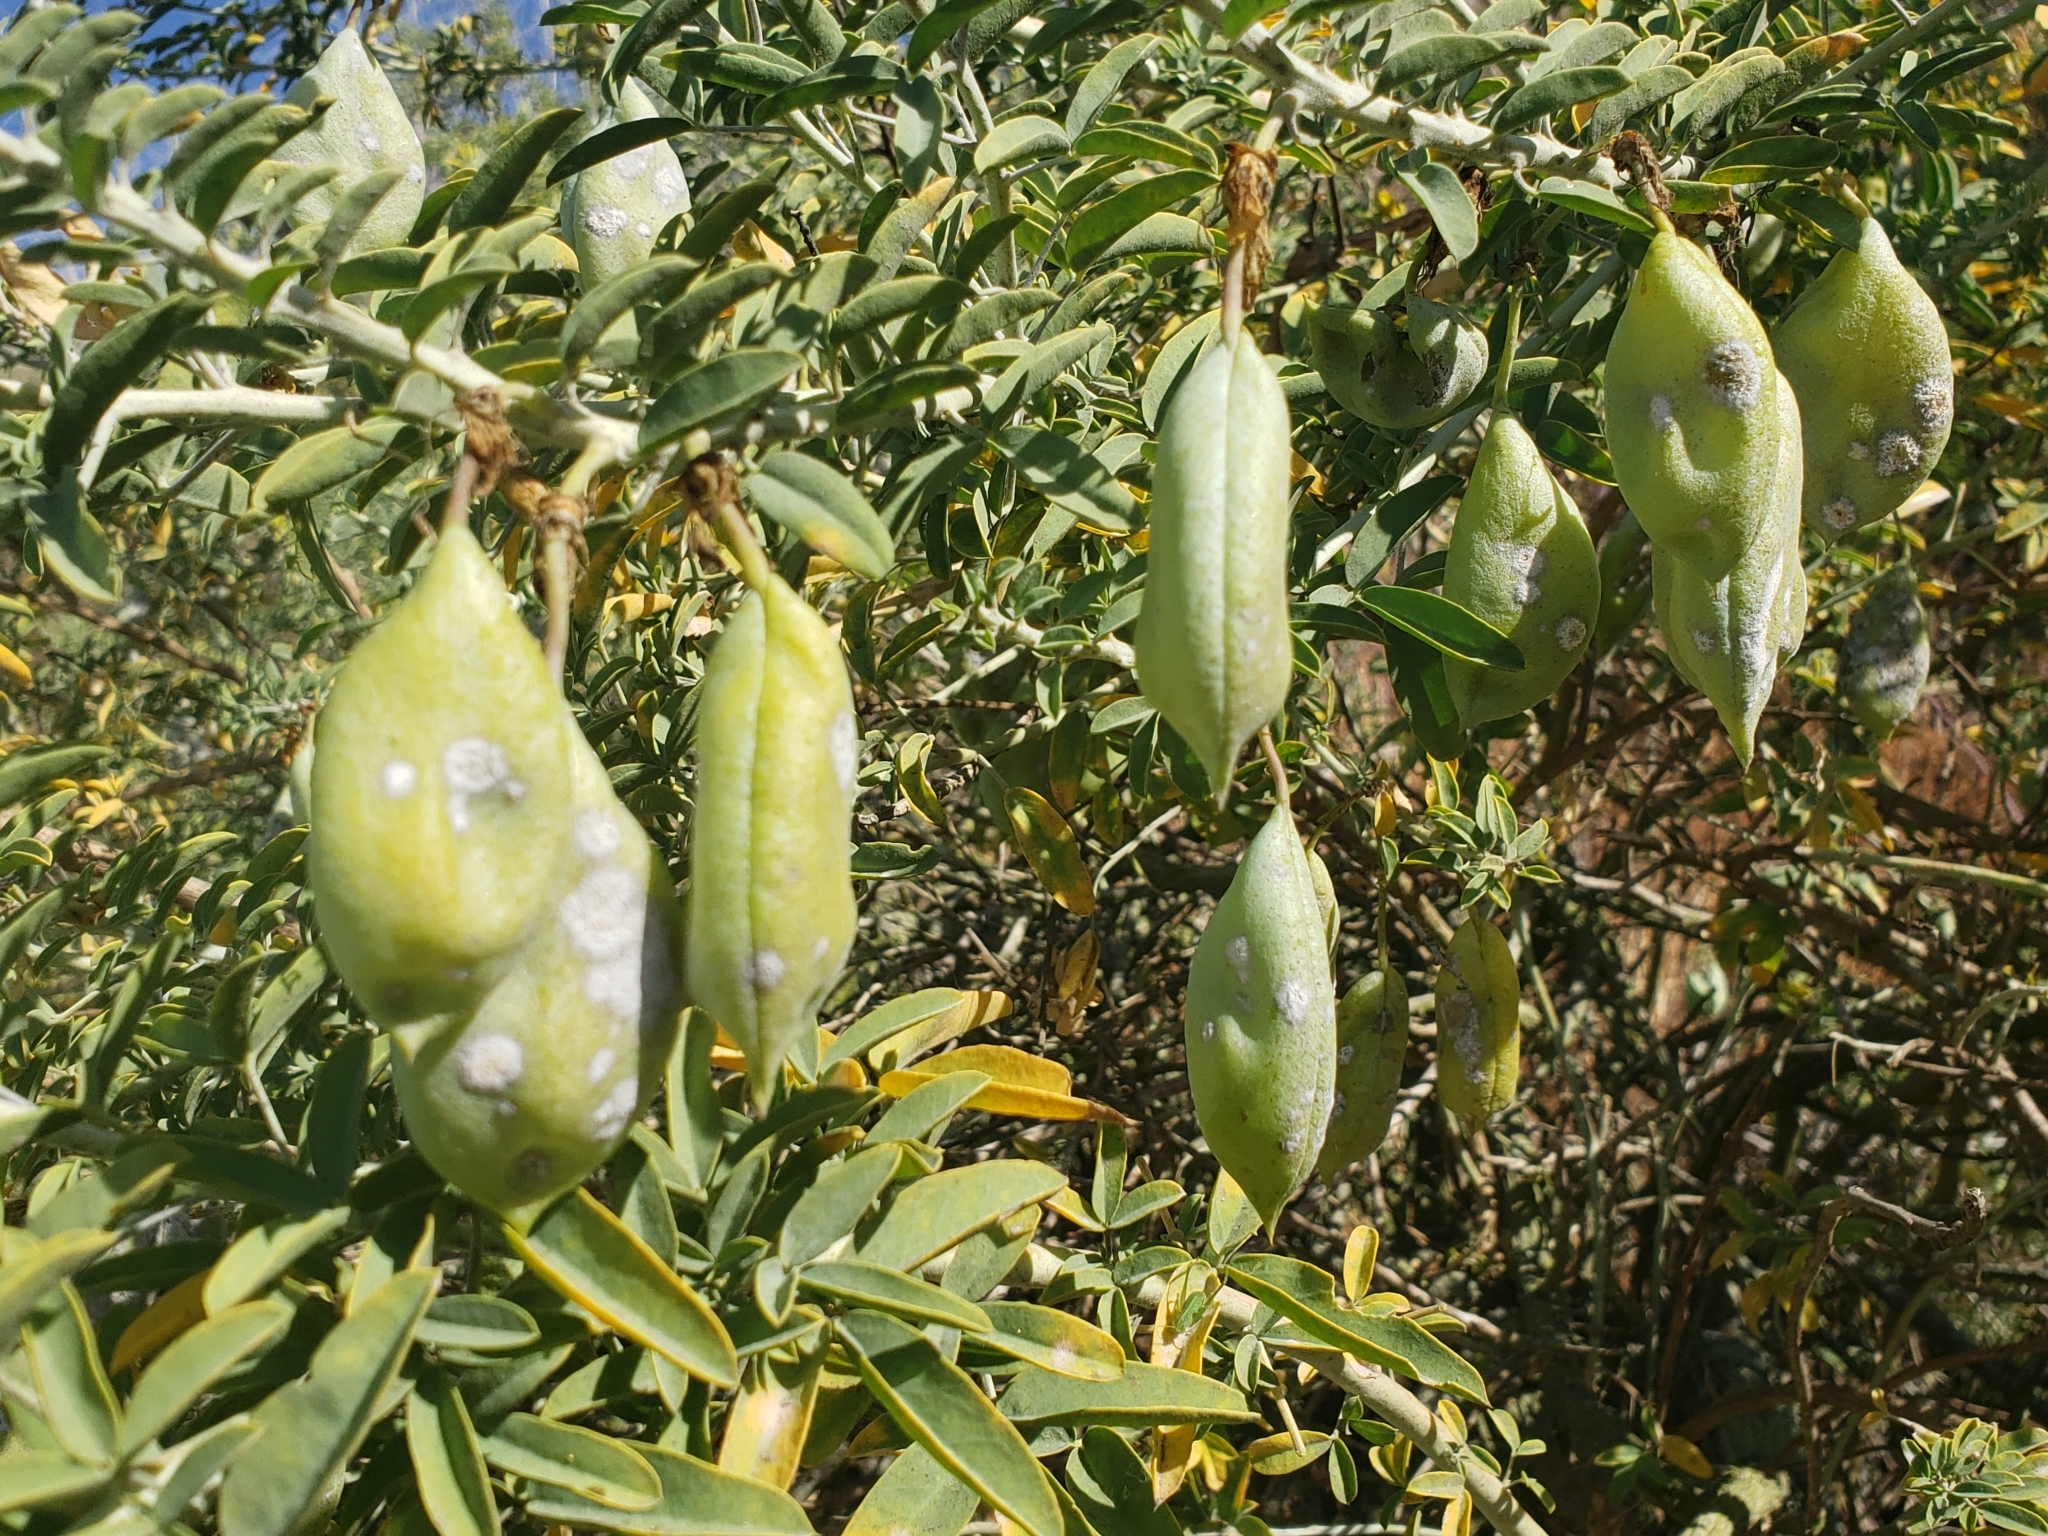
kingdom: Plantae
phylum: Tracheophyta
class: Magnoliopsida
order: Brassicales
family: Cleomaceae
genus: Cleomella
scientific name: Cleomella arborea
